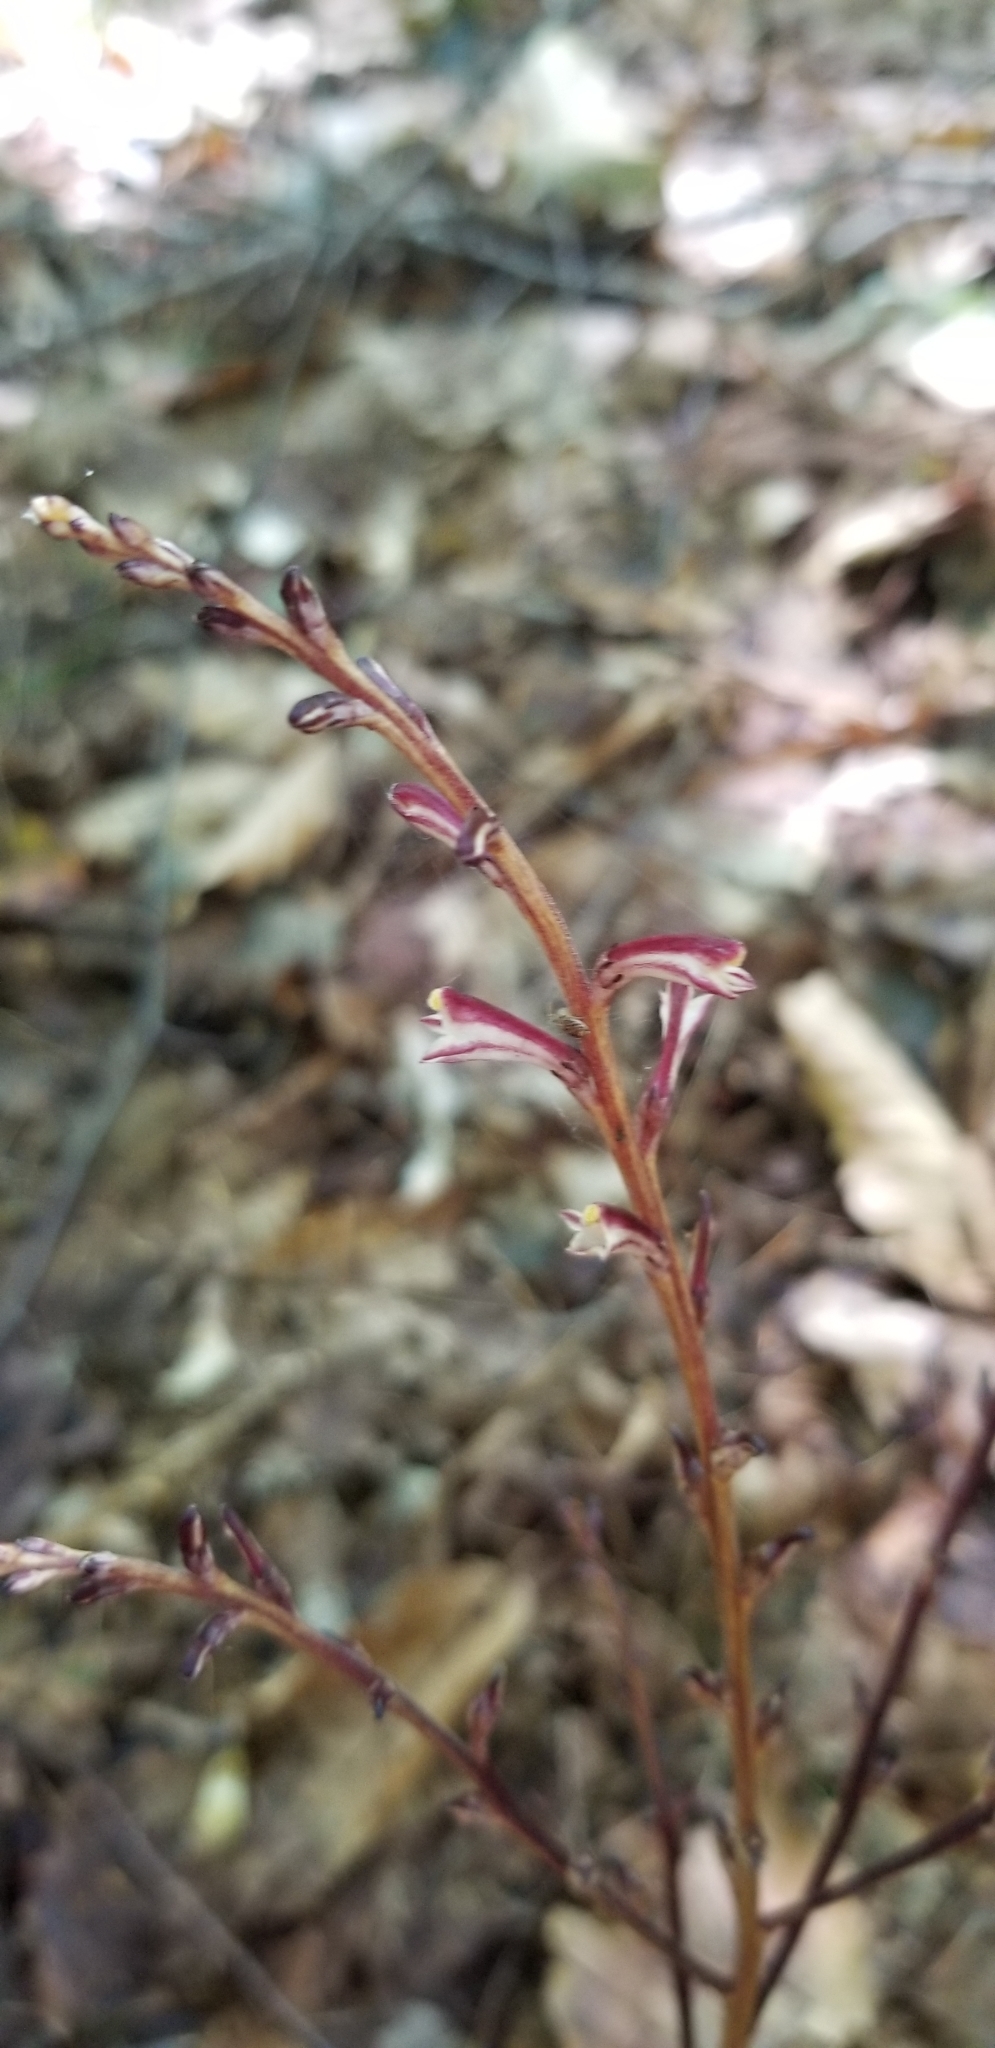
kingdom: Plantae
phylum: Tracheophyta
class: Magnoliopsida
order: Lamiales
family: Orobanchaceae
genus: Epifagus
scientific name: Epifagus virginiana
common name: Beechdrops
